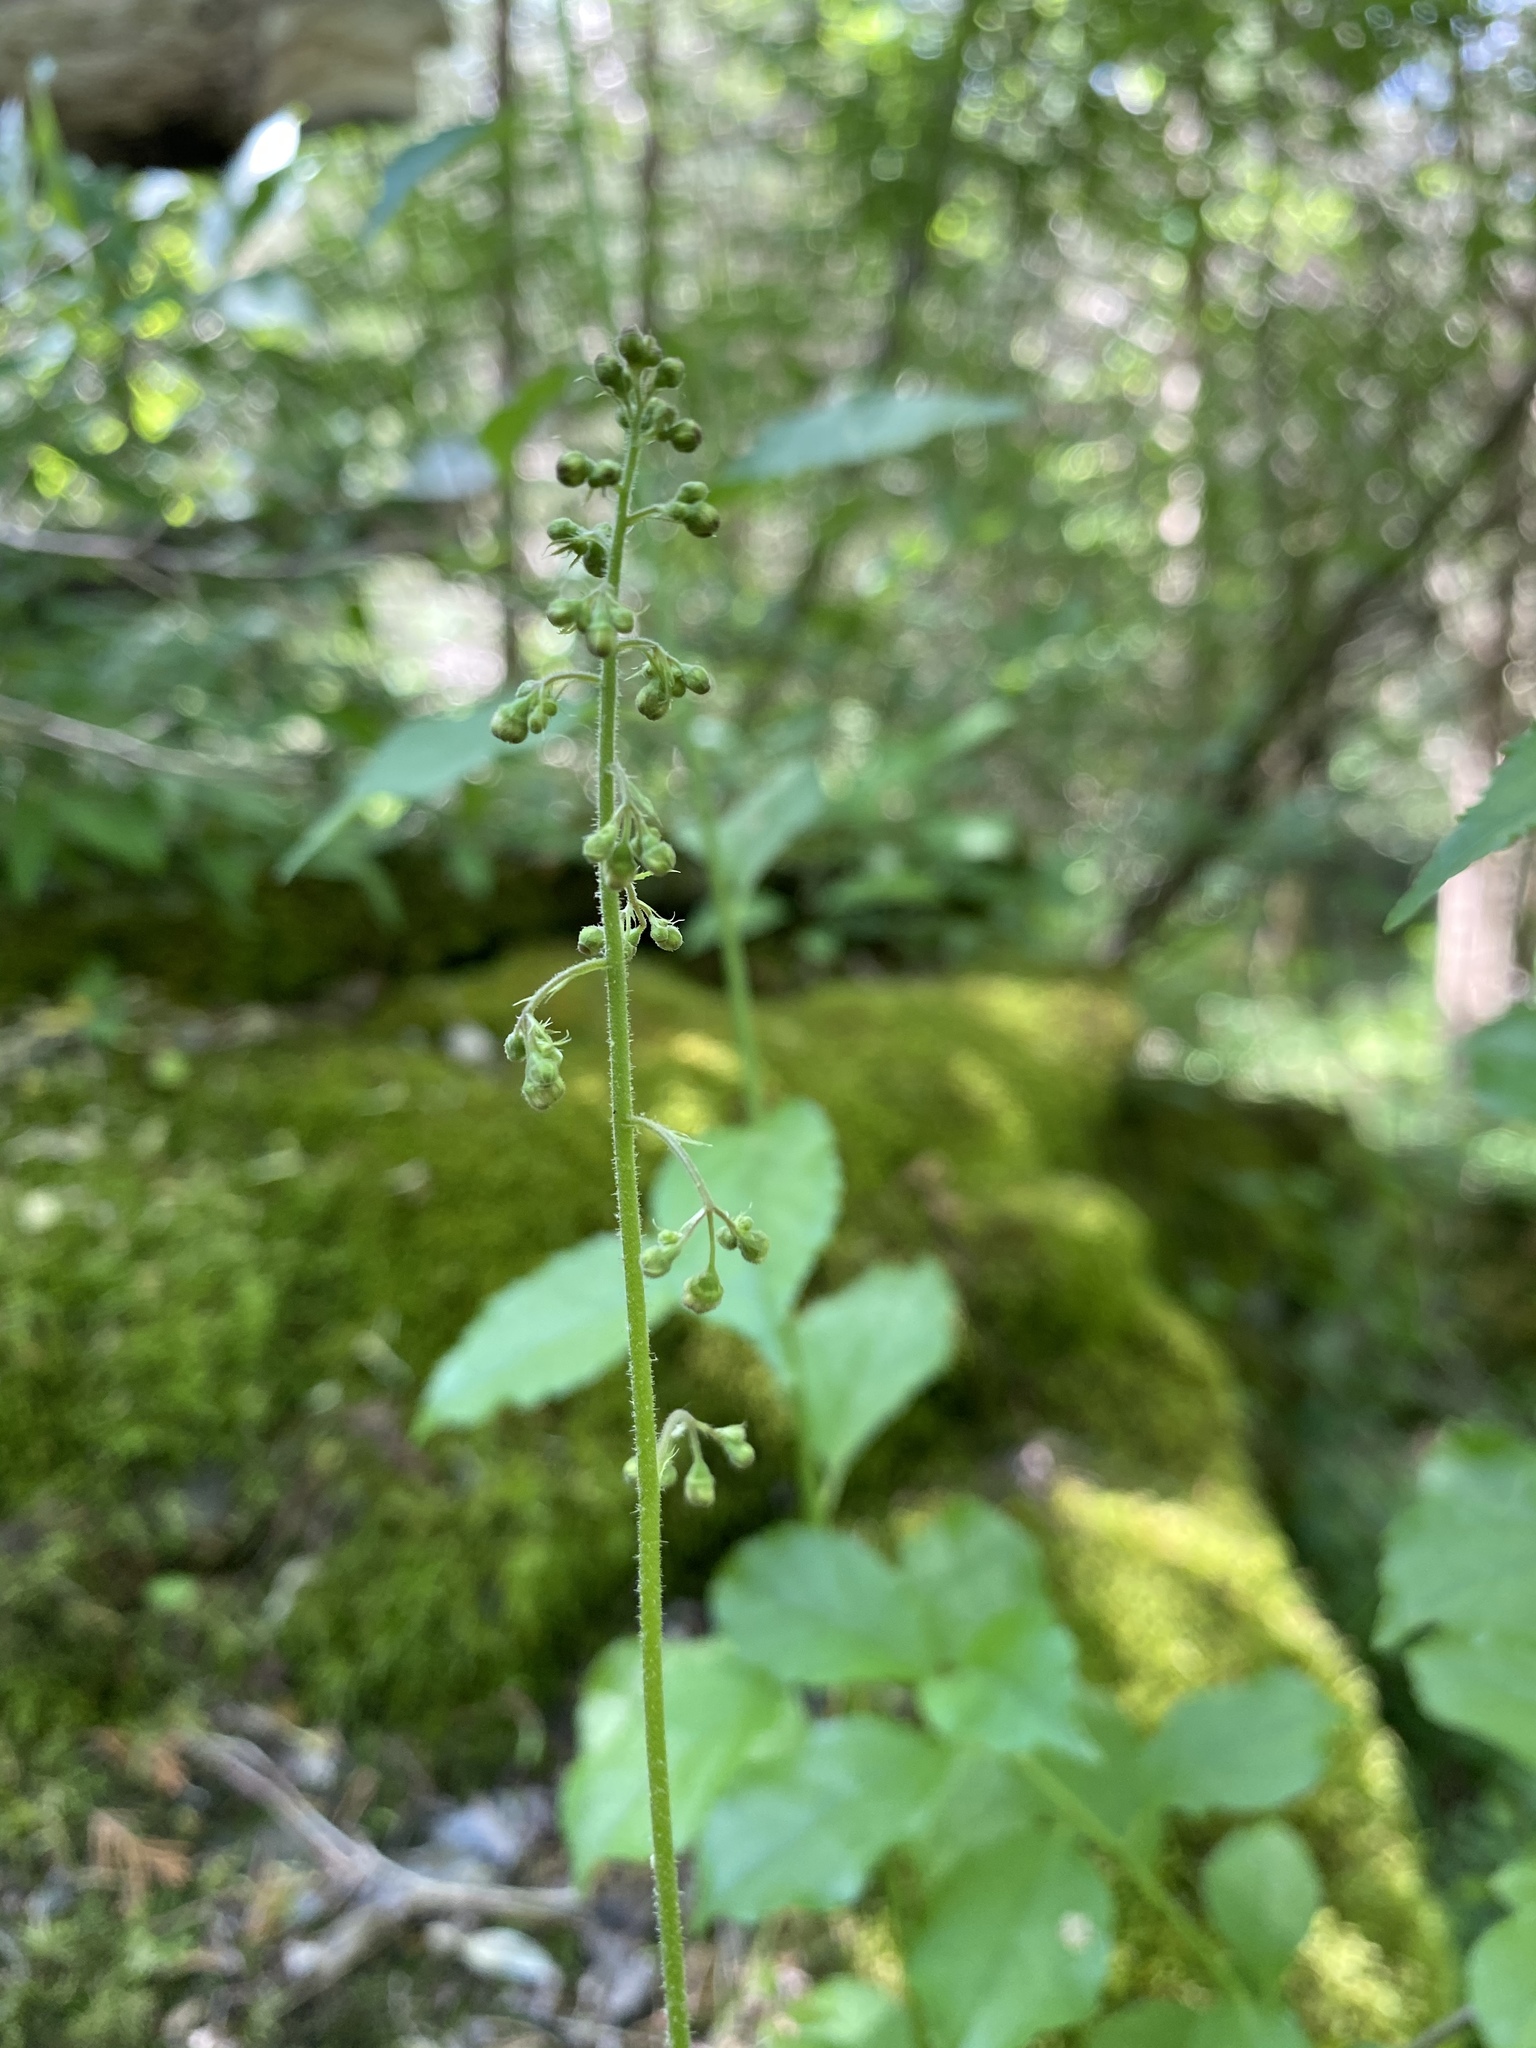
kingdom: Plantae
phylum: Tracheophyta
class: Magnoliopsida
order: Saxifragales
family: Saxifragaceae
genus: Heuchera
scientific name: Heuchera americana
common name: Alumroot
